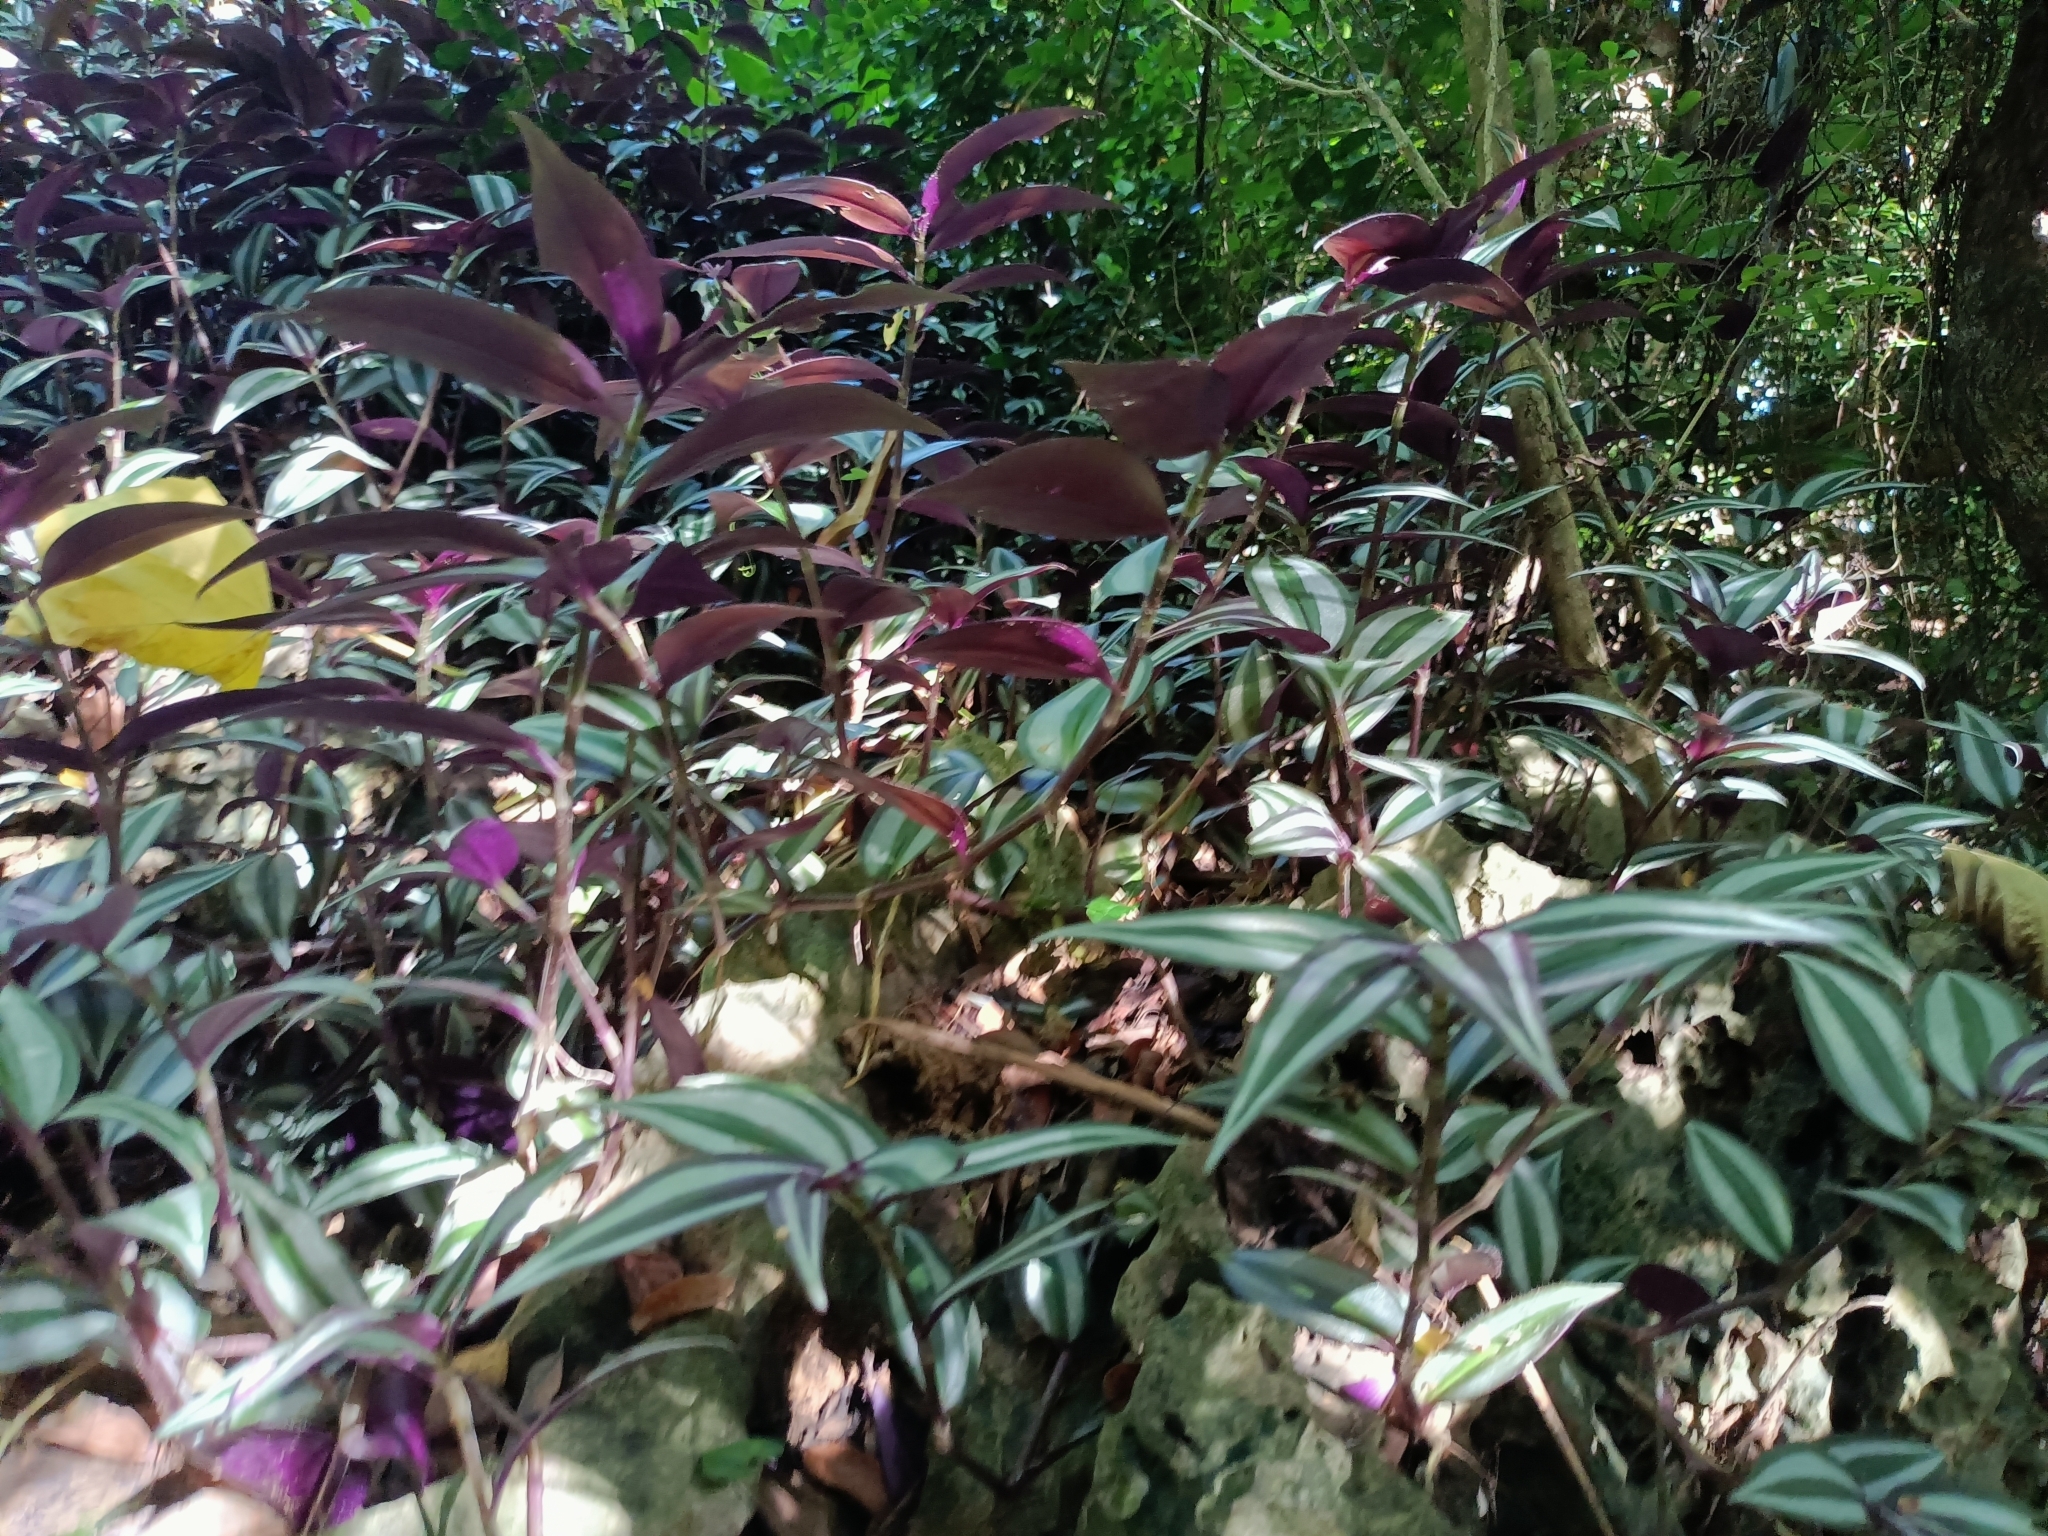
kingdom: Plantae
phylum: Tracheophyta
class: Liliopsida
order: Commelinales
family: Commelinaceae
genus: Tradescantia
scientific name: Tradescantia zebrina
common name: Inchplant
